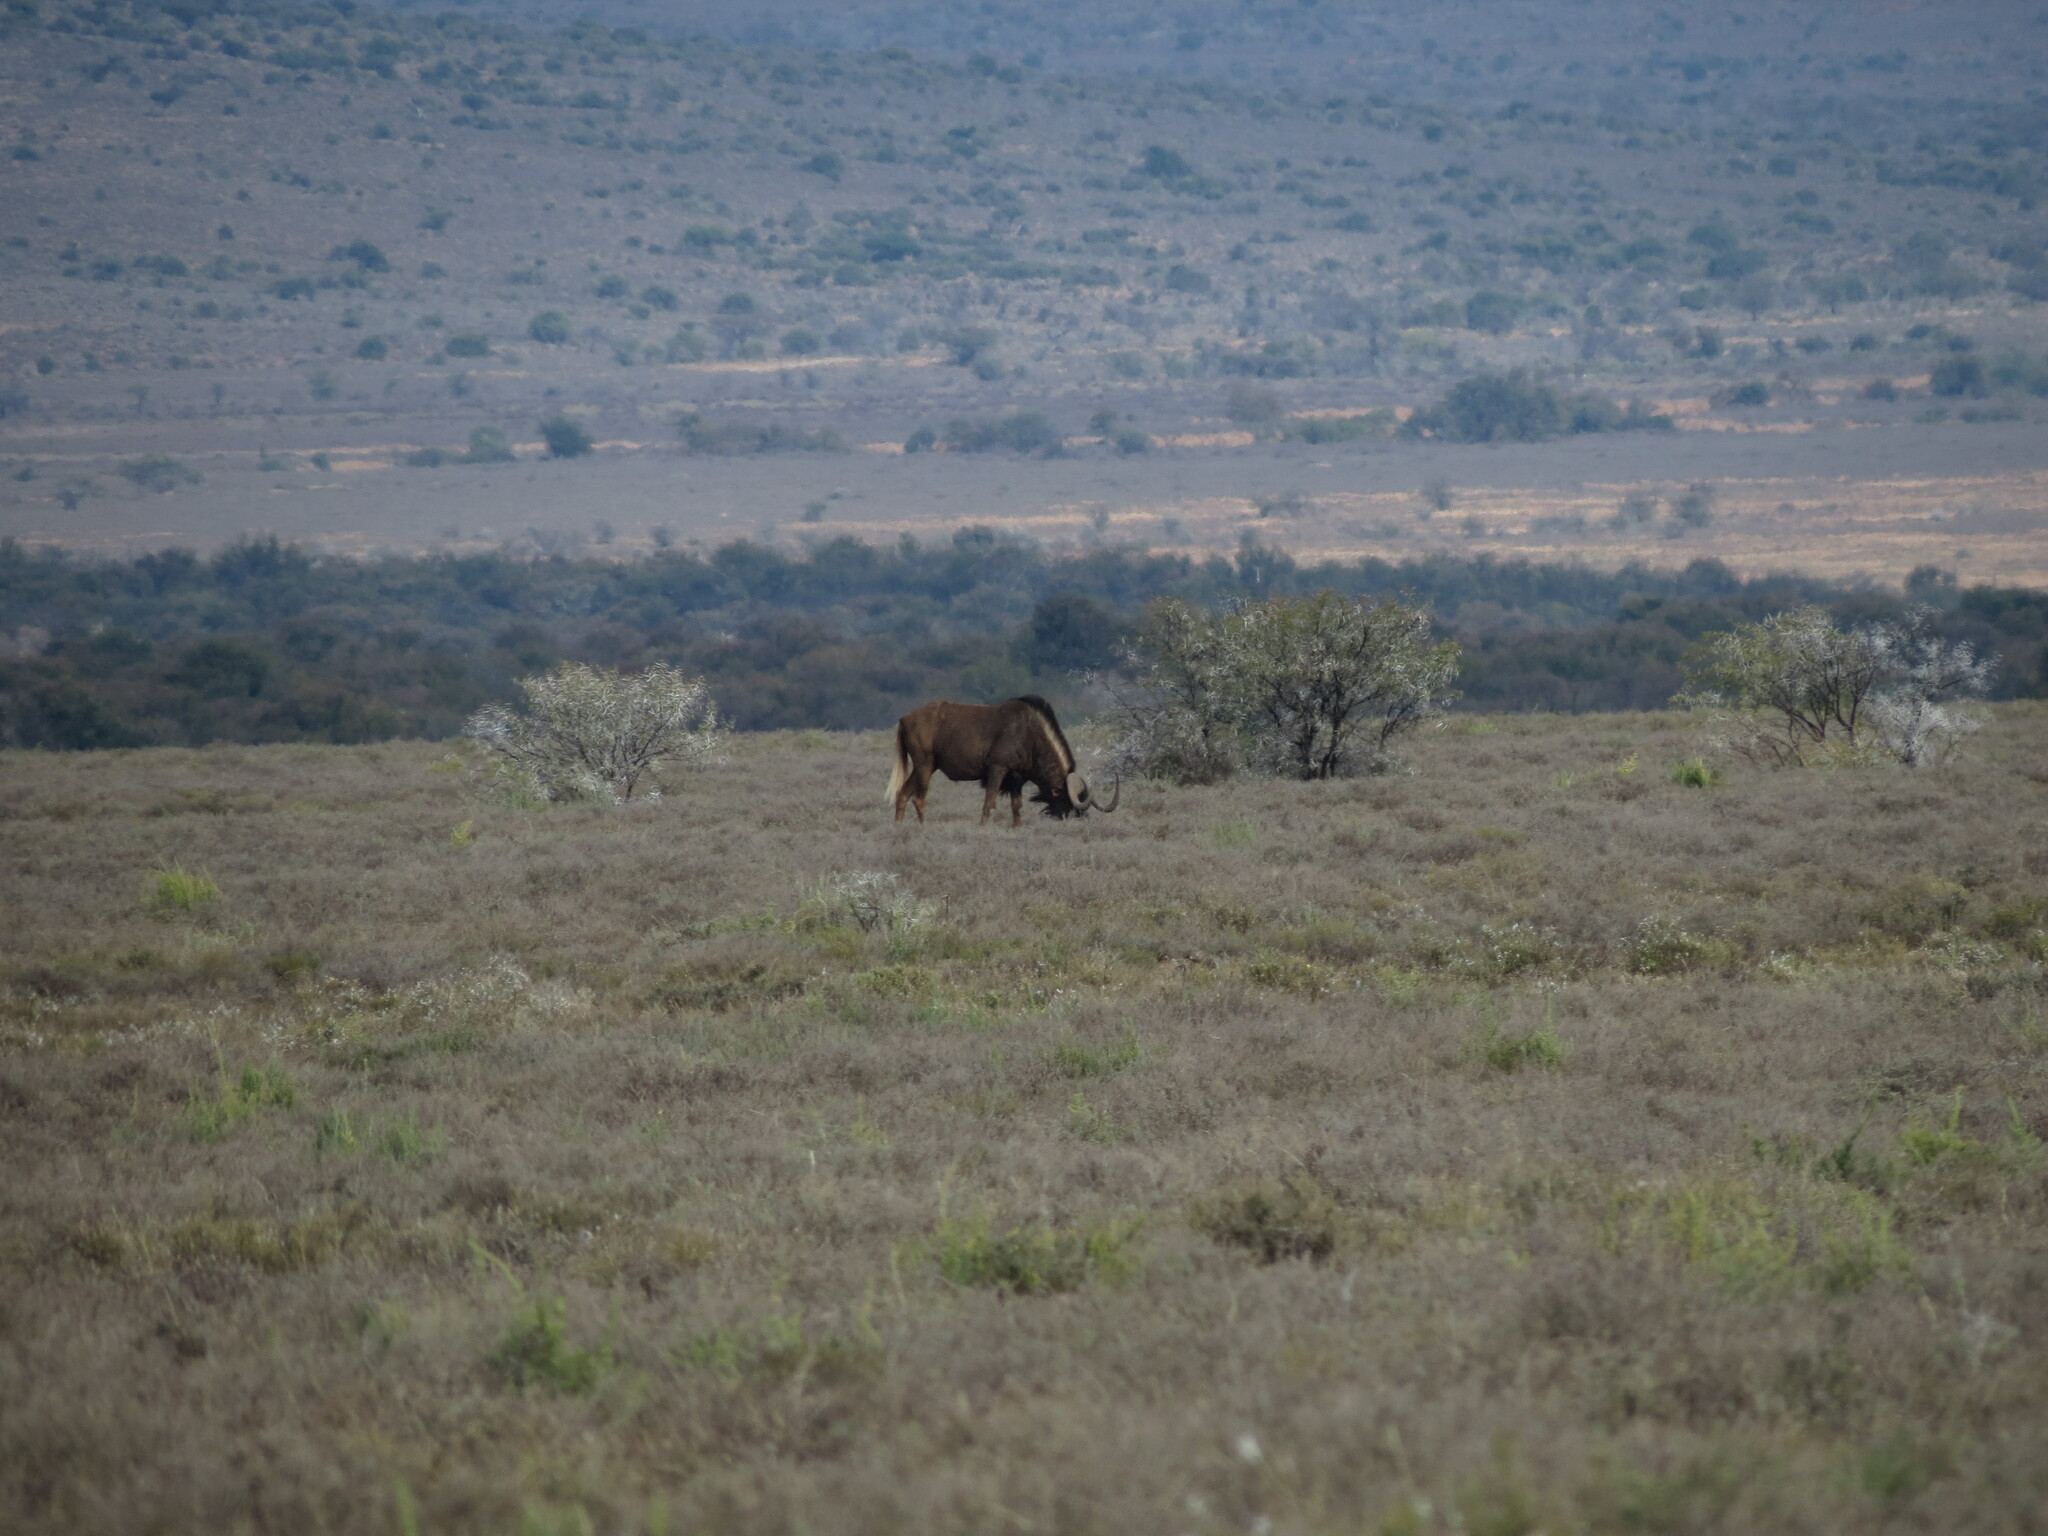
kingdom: Animalia
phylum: Chordata
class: Mammalia
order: Artiodactyla
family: Bovidae
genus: Connochaetes
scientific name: Connochaetes gnou
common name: Black wildebeest
